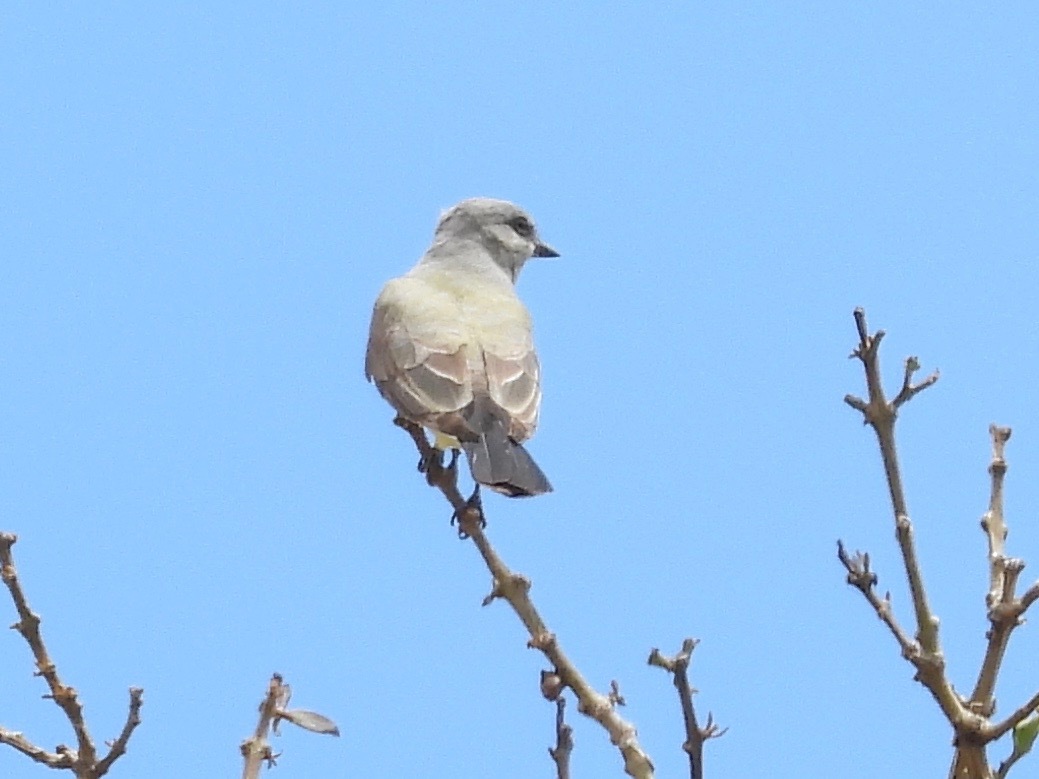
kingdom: Animalia
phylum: Chordata
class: Aves
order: Passeriformes
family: Tyrannidae
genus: Tyrannus
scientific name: Tyrannus verticalis
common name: Western kingbird
